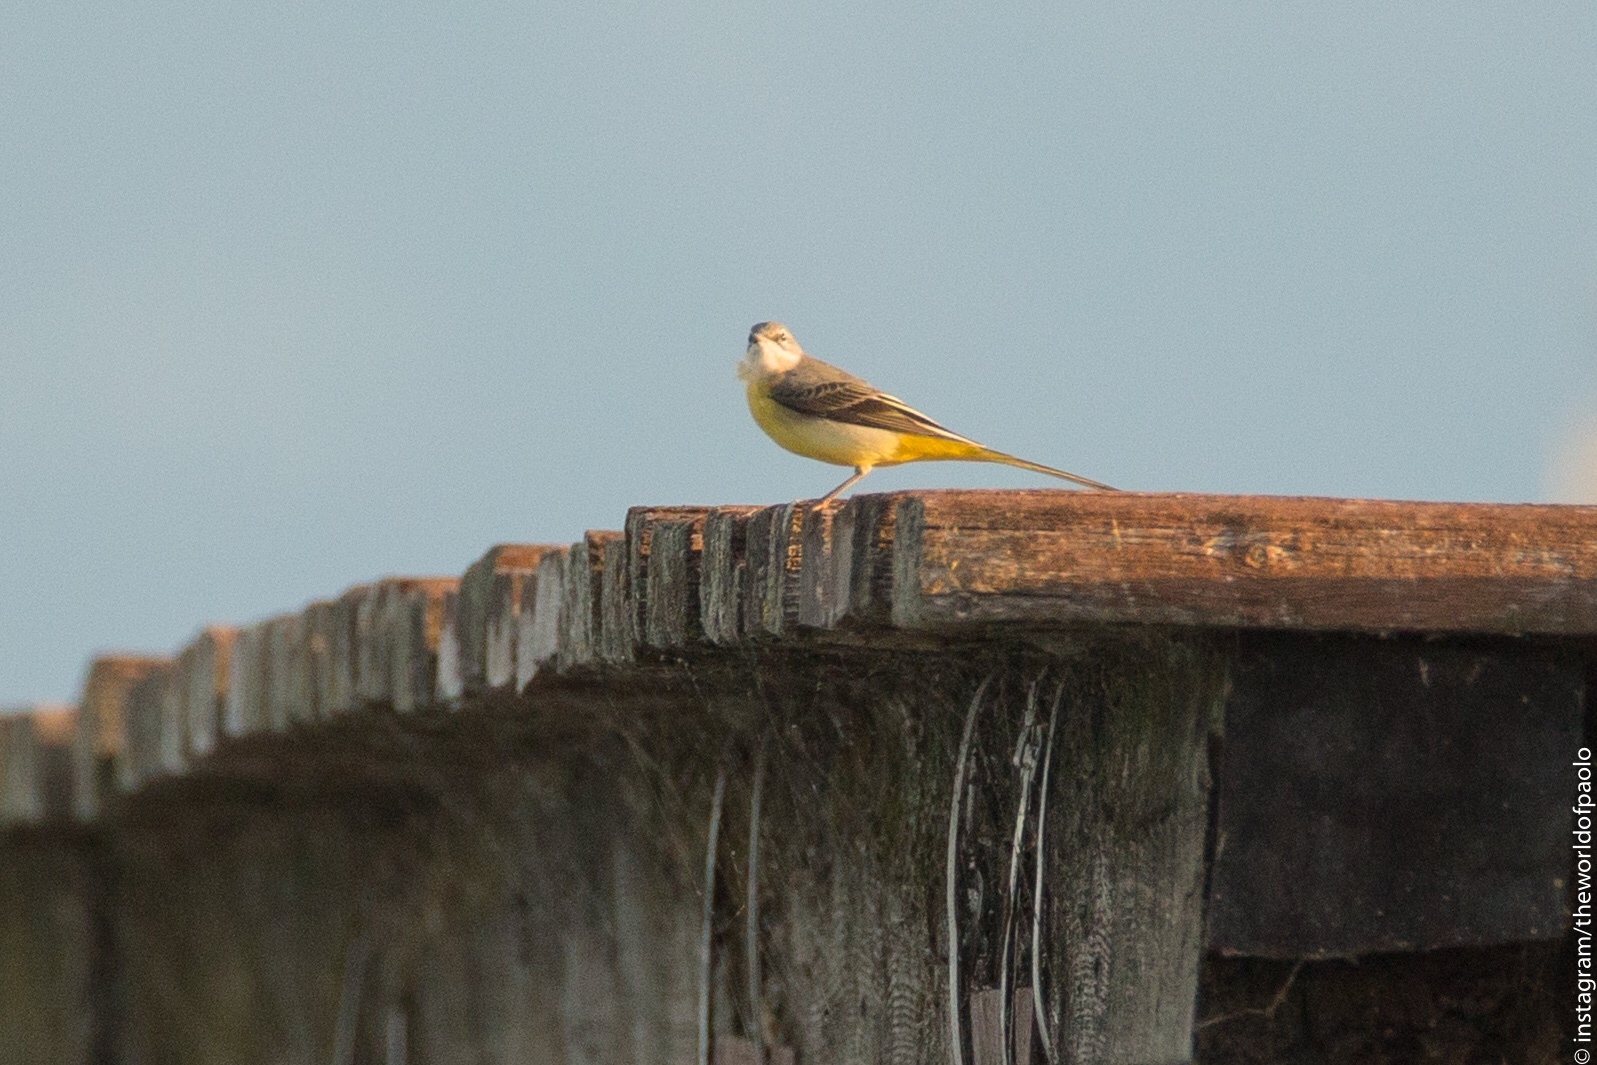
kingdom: Animalia
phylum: Chordata
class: Aves
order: Passeriformes
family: Motacillidae
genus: Motacilla
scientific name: Motacilla cinerea
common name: Grey wagtail
